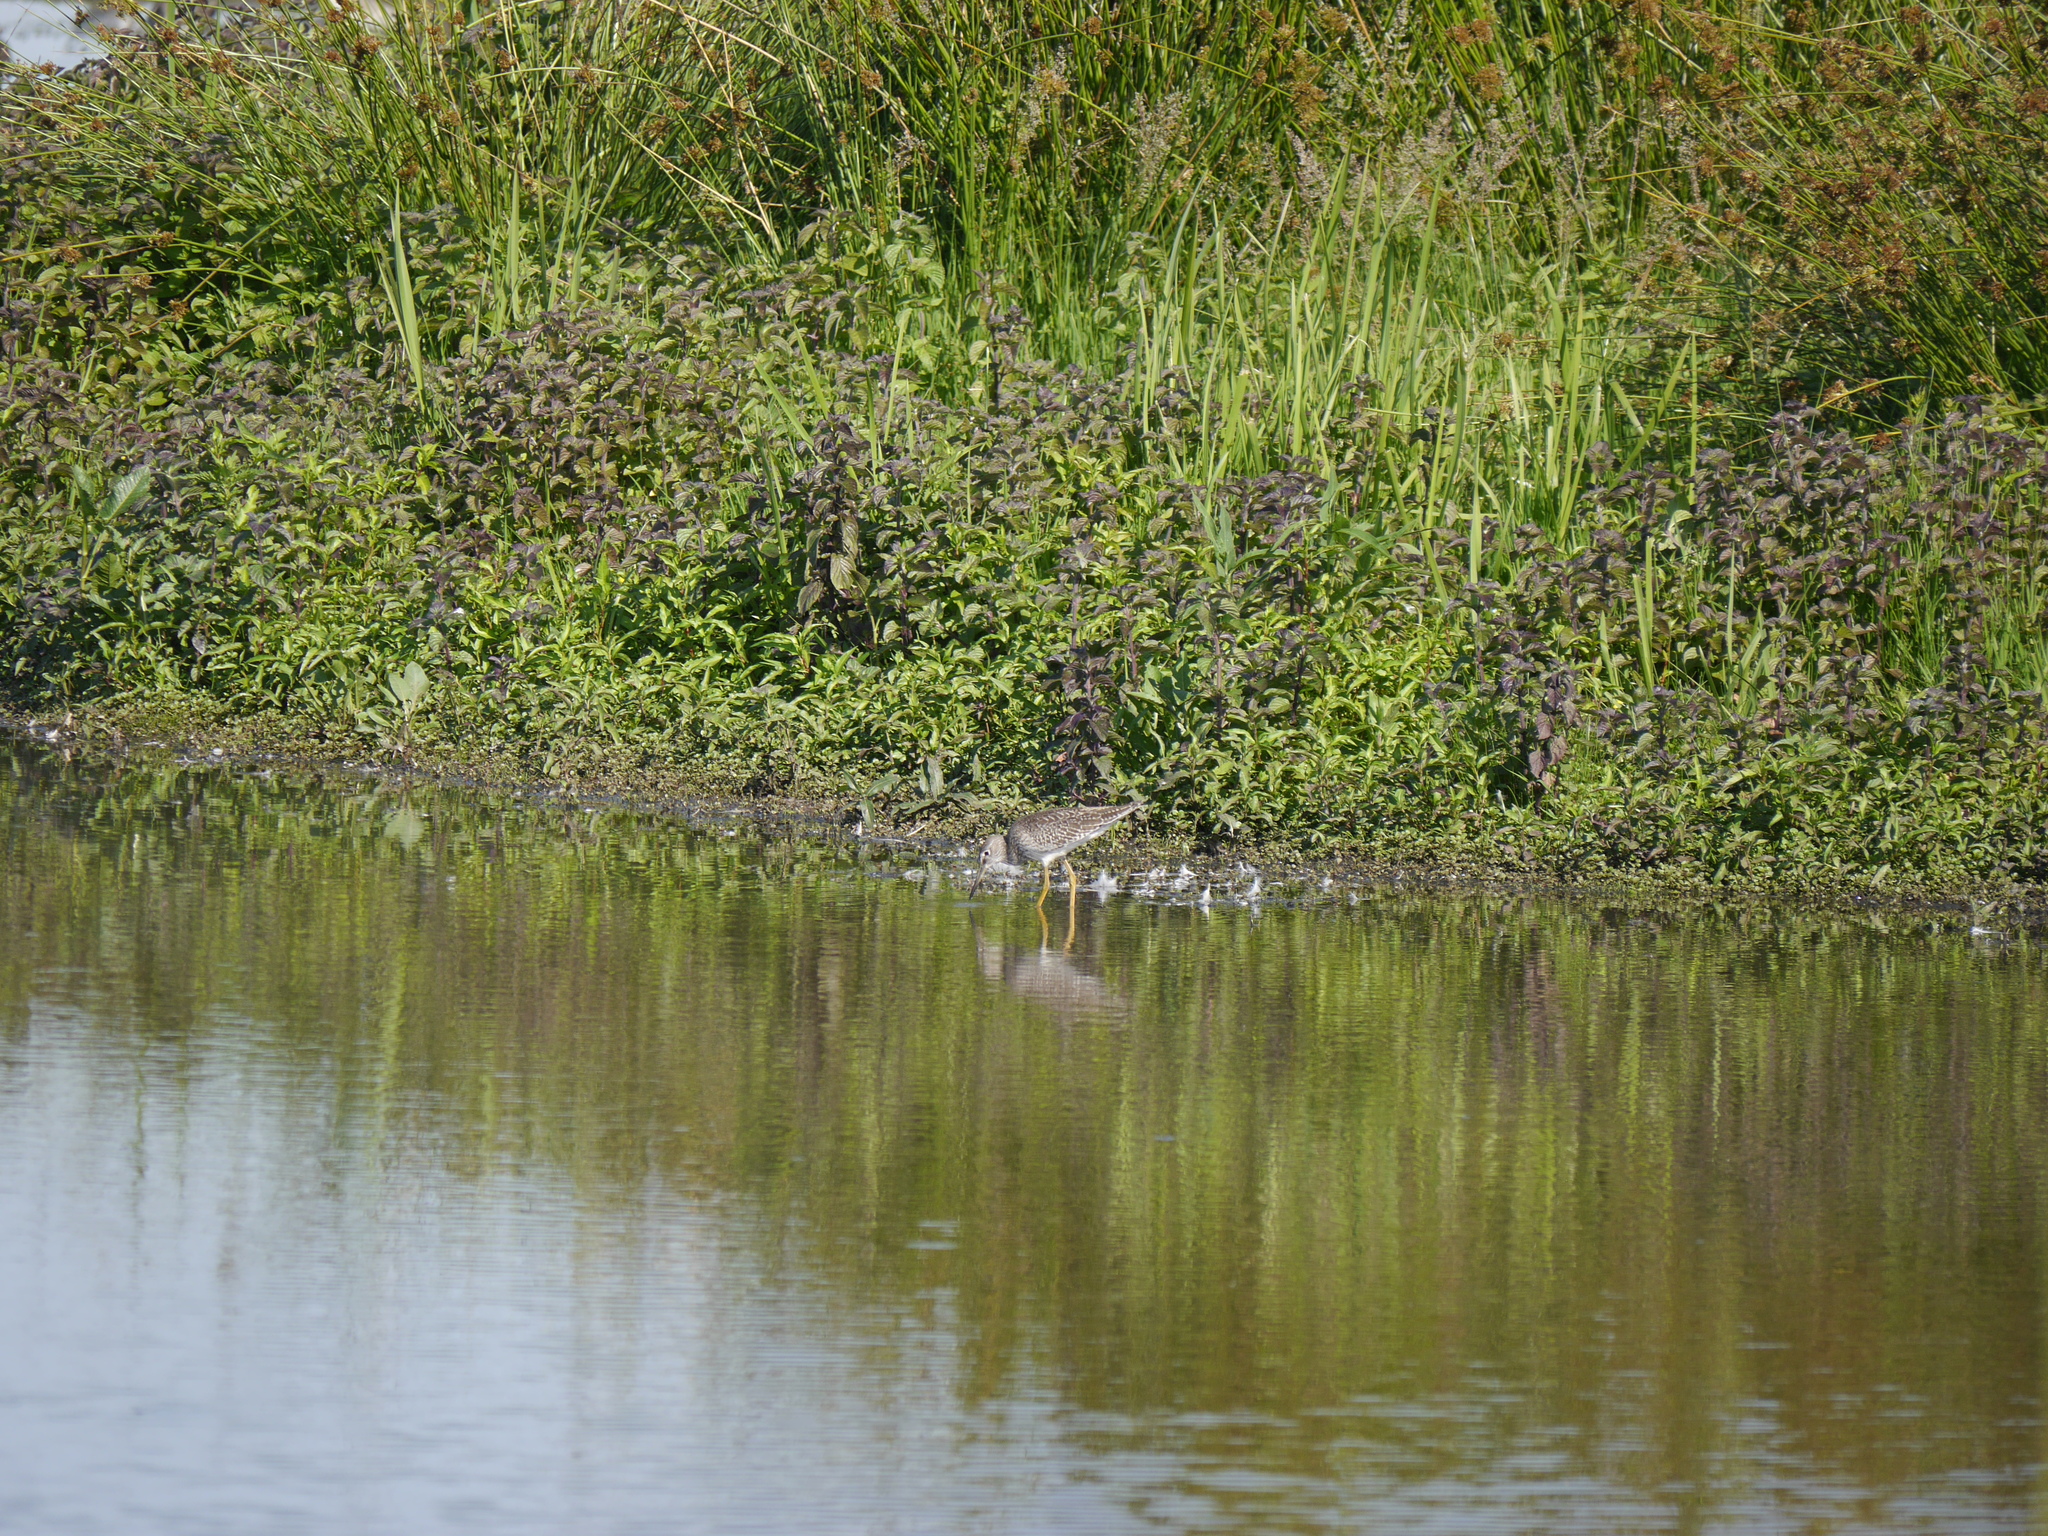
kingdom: Animalia
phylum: Chordata
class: Aves
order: Charadriiformes
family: Scolopacidae
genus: Tringa
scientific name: Tringa totanus
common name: Common redshank
